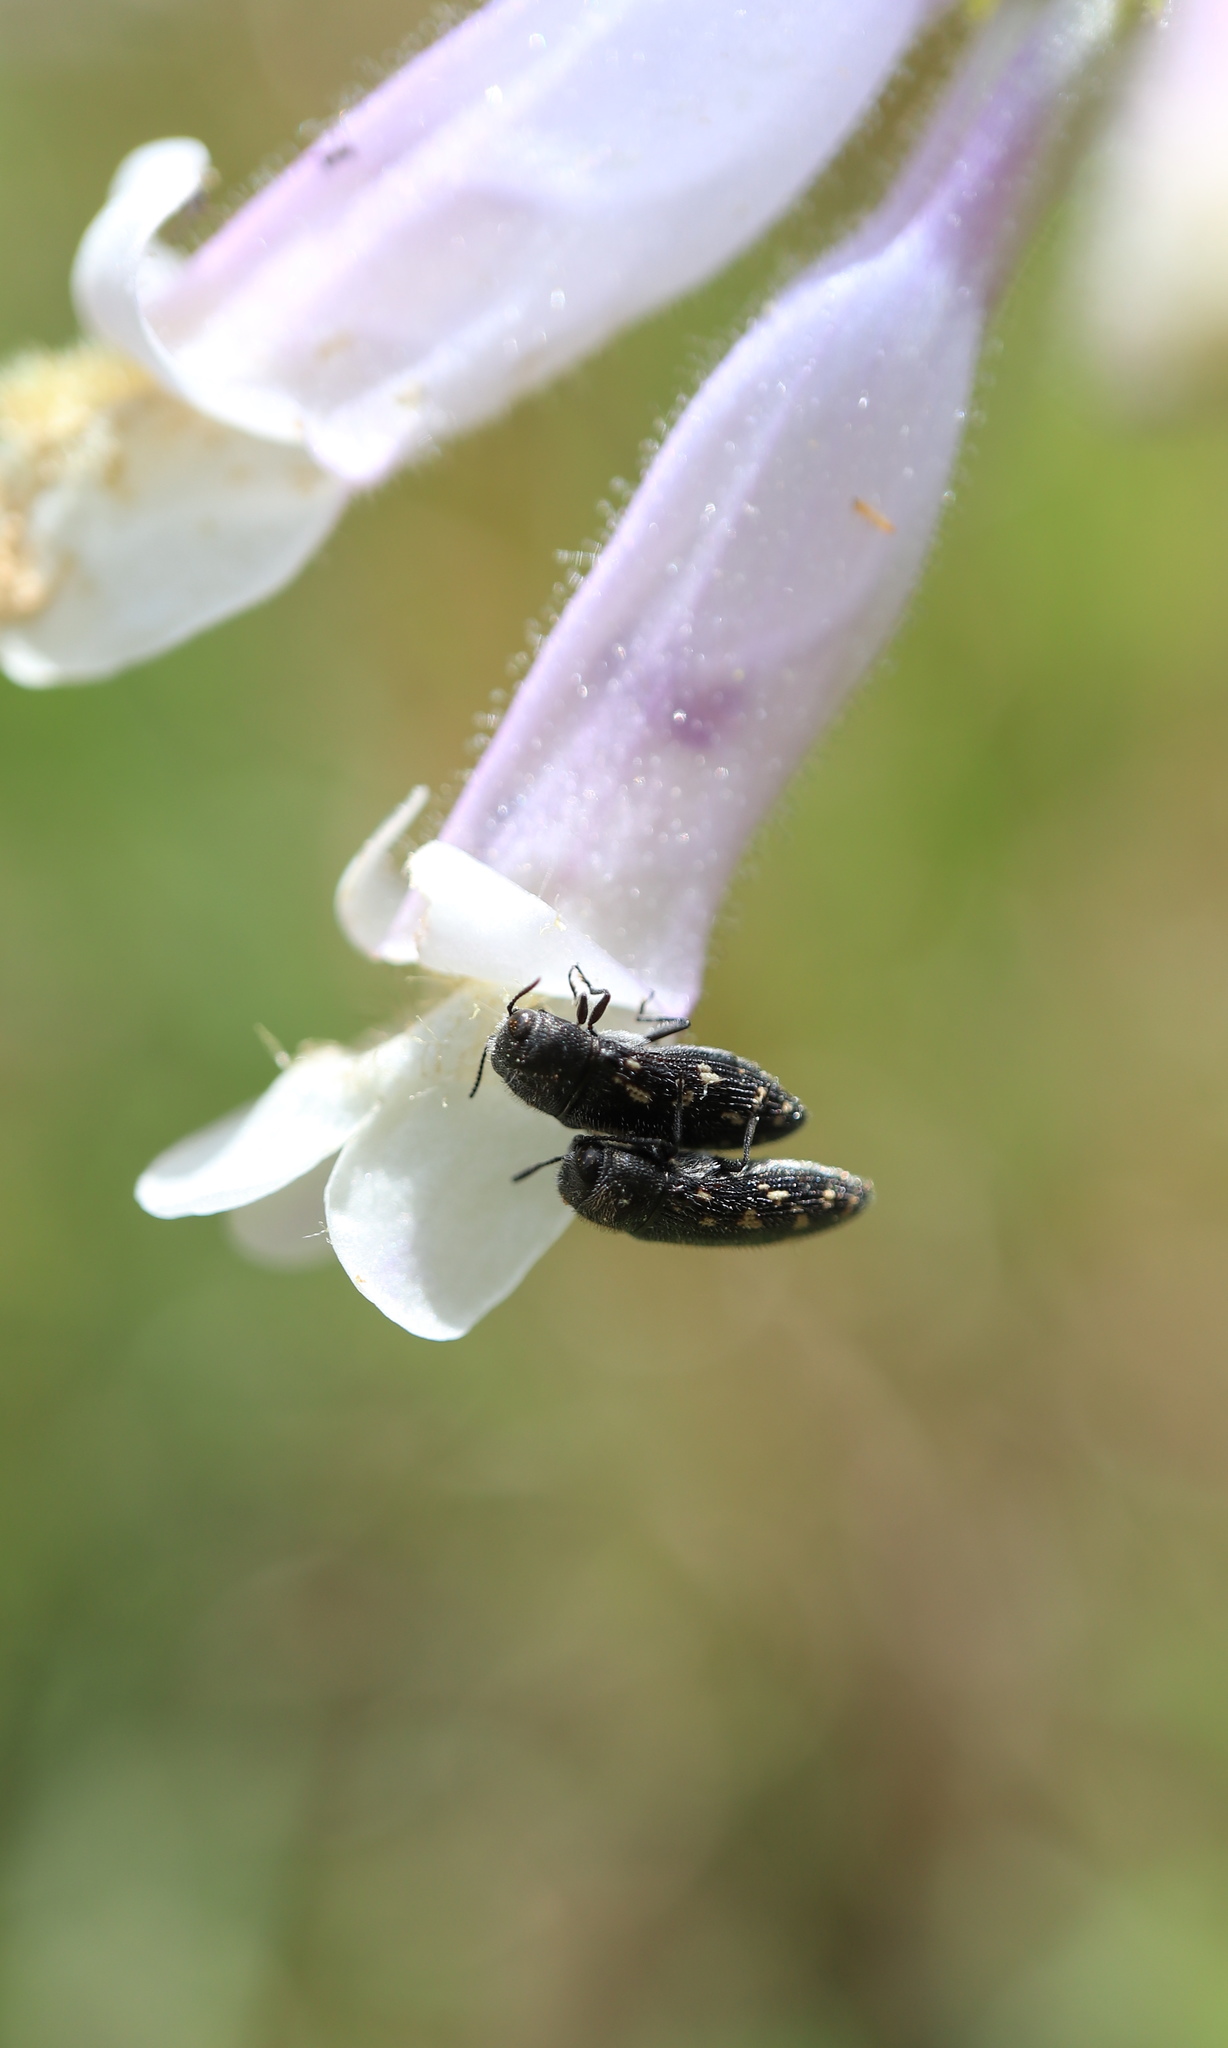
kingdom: Animalia
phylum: Arthropoda
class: Insecta
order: Coleoptera
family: Buprestidae
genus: Acmaeodera
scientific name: Acmaeodera tubulus
